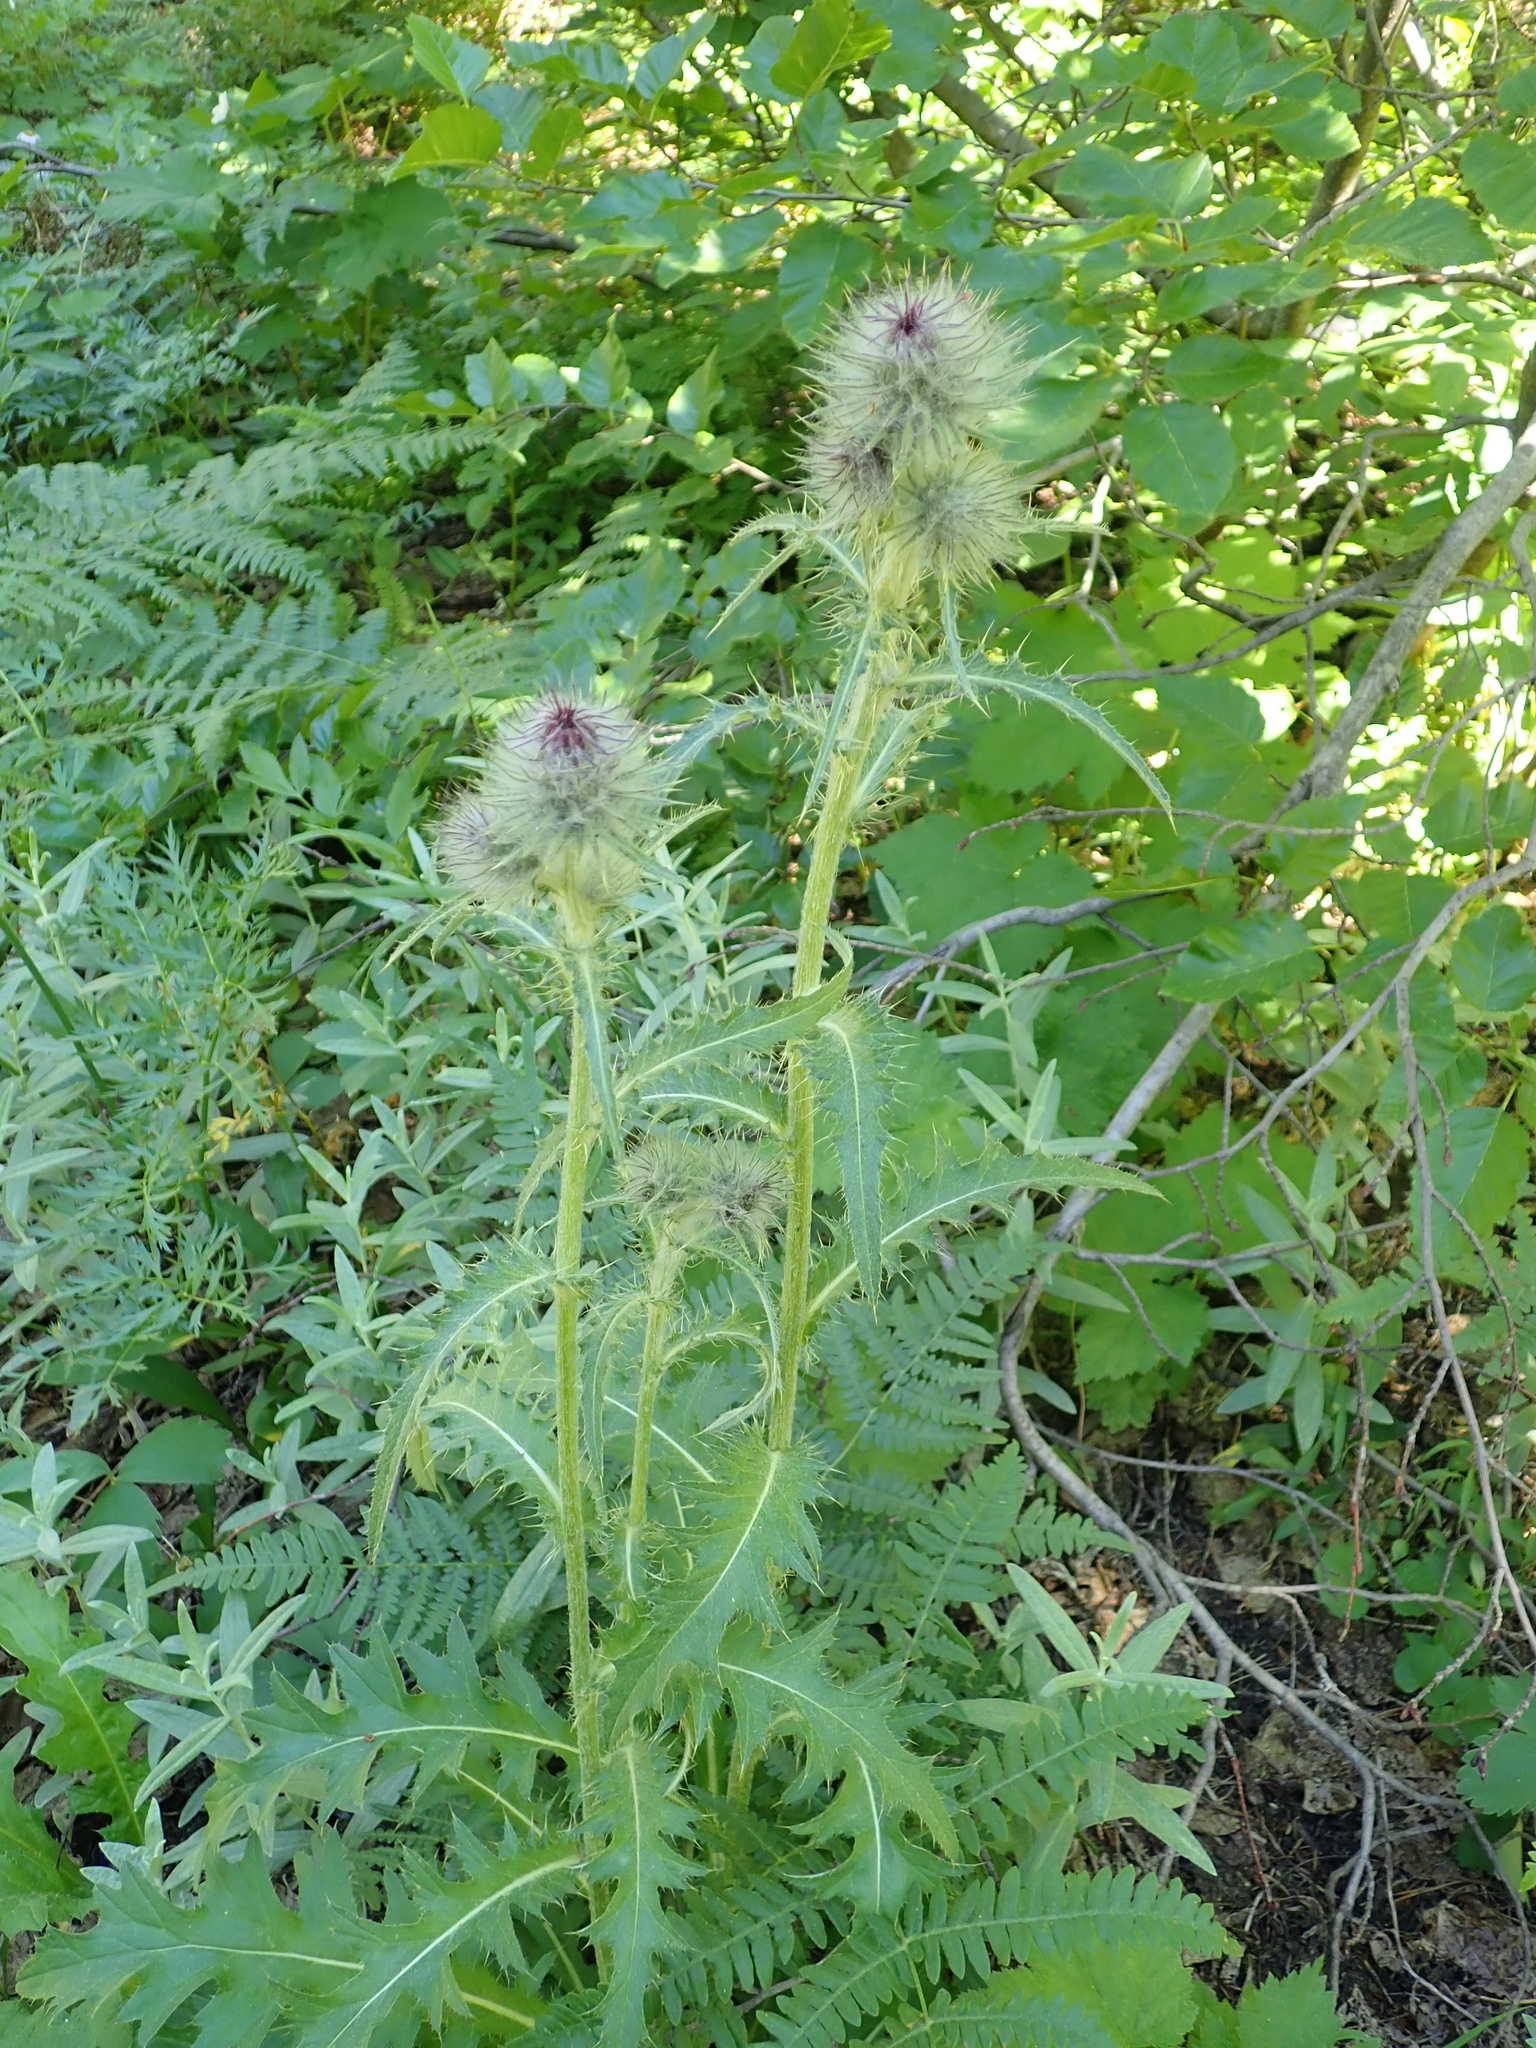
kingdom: Plantae
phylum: Tracheophyta
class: Magnoliopsida
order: Asterales
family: Asteraceae
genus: Cirsium
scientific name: Cirsium edule
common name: Indian thistle
